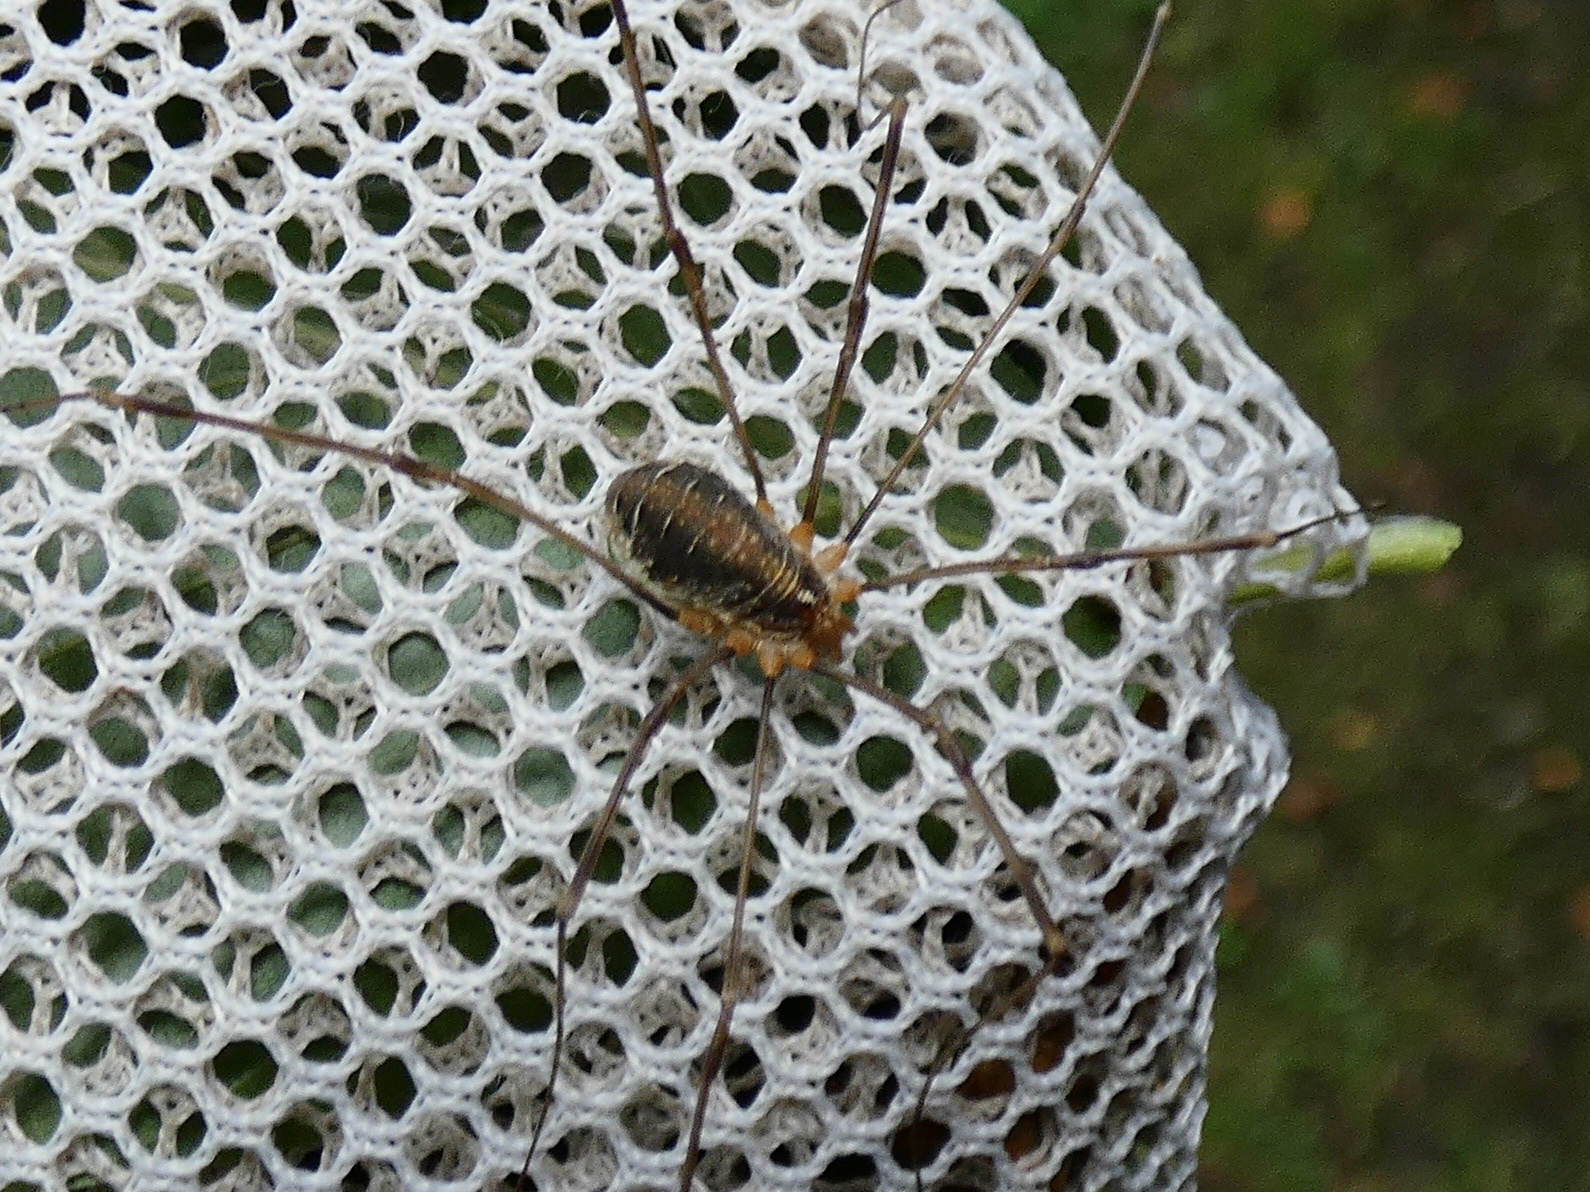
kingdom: Animalia
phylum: Arthropoda
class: Arachnida
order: Opiliones
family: Phalangiidae
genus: Opilio
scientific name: Opilio canestrinii
